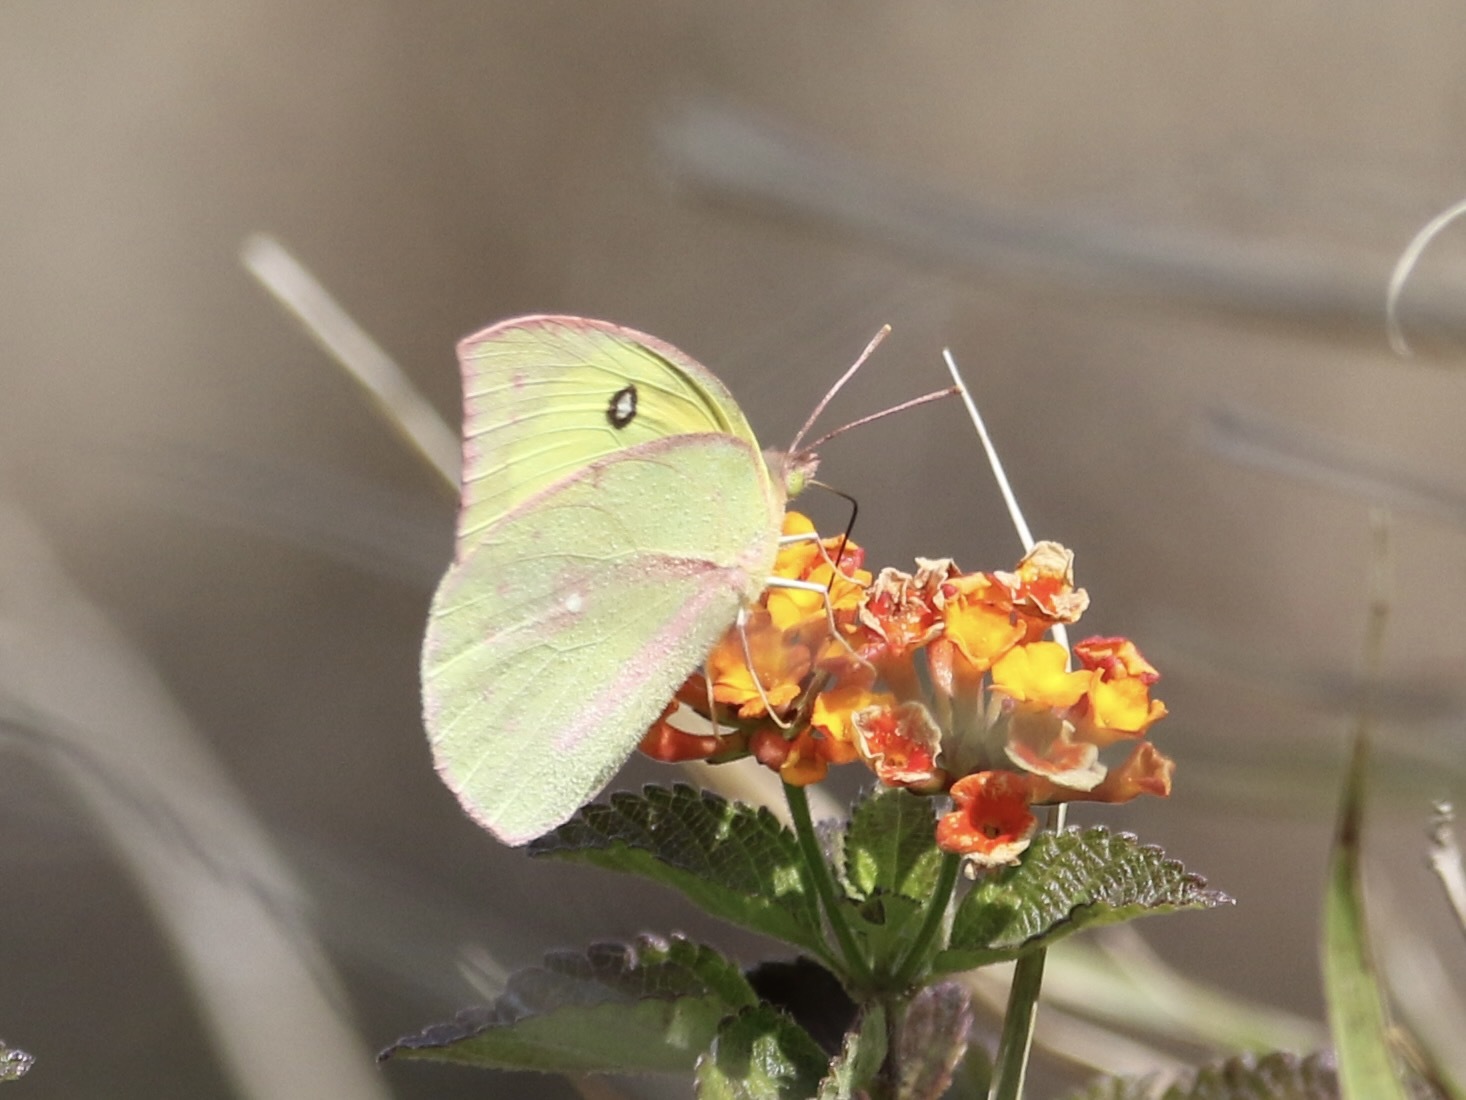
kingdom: Animalia
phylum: Arthropoda
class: Insecta
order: Lepidoptera
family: Pieridae
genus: Zerene
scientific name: Zerene cesonia
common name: Southern dogface
